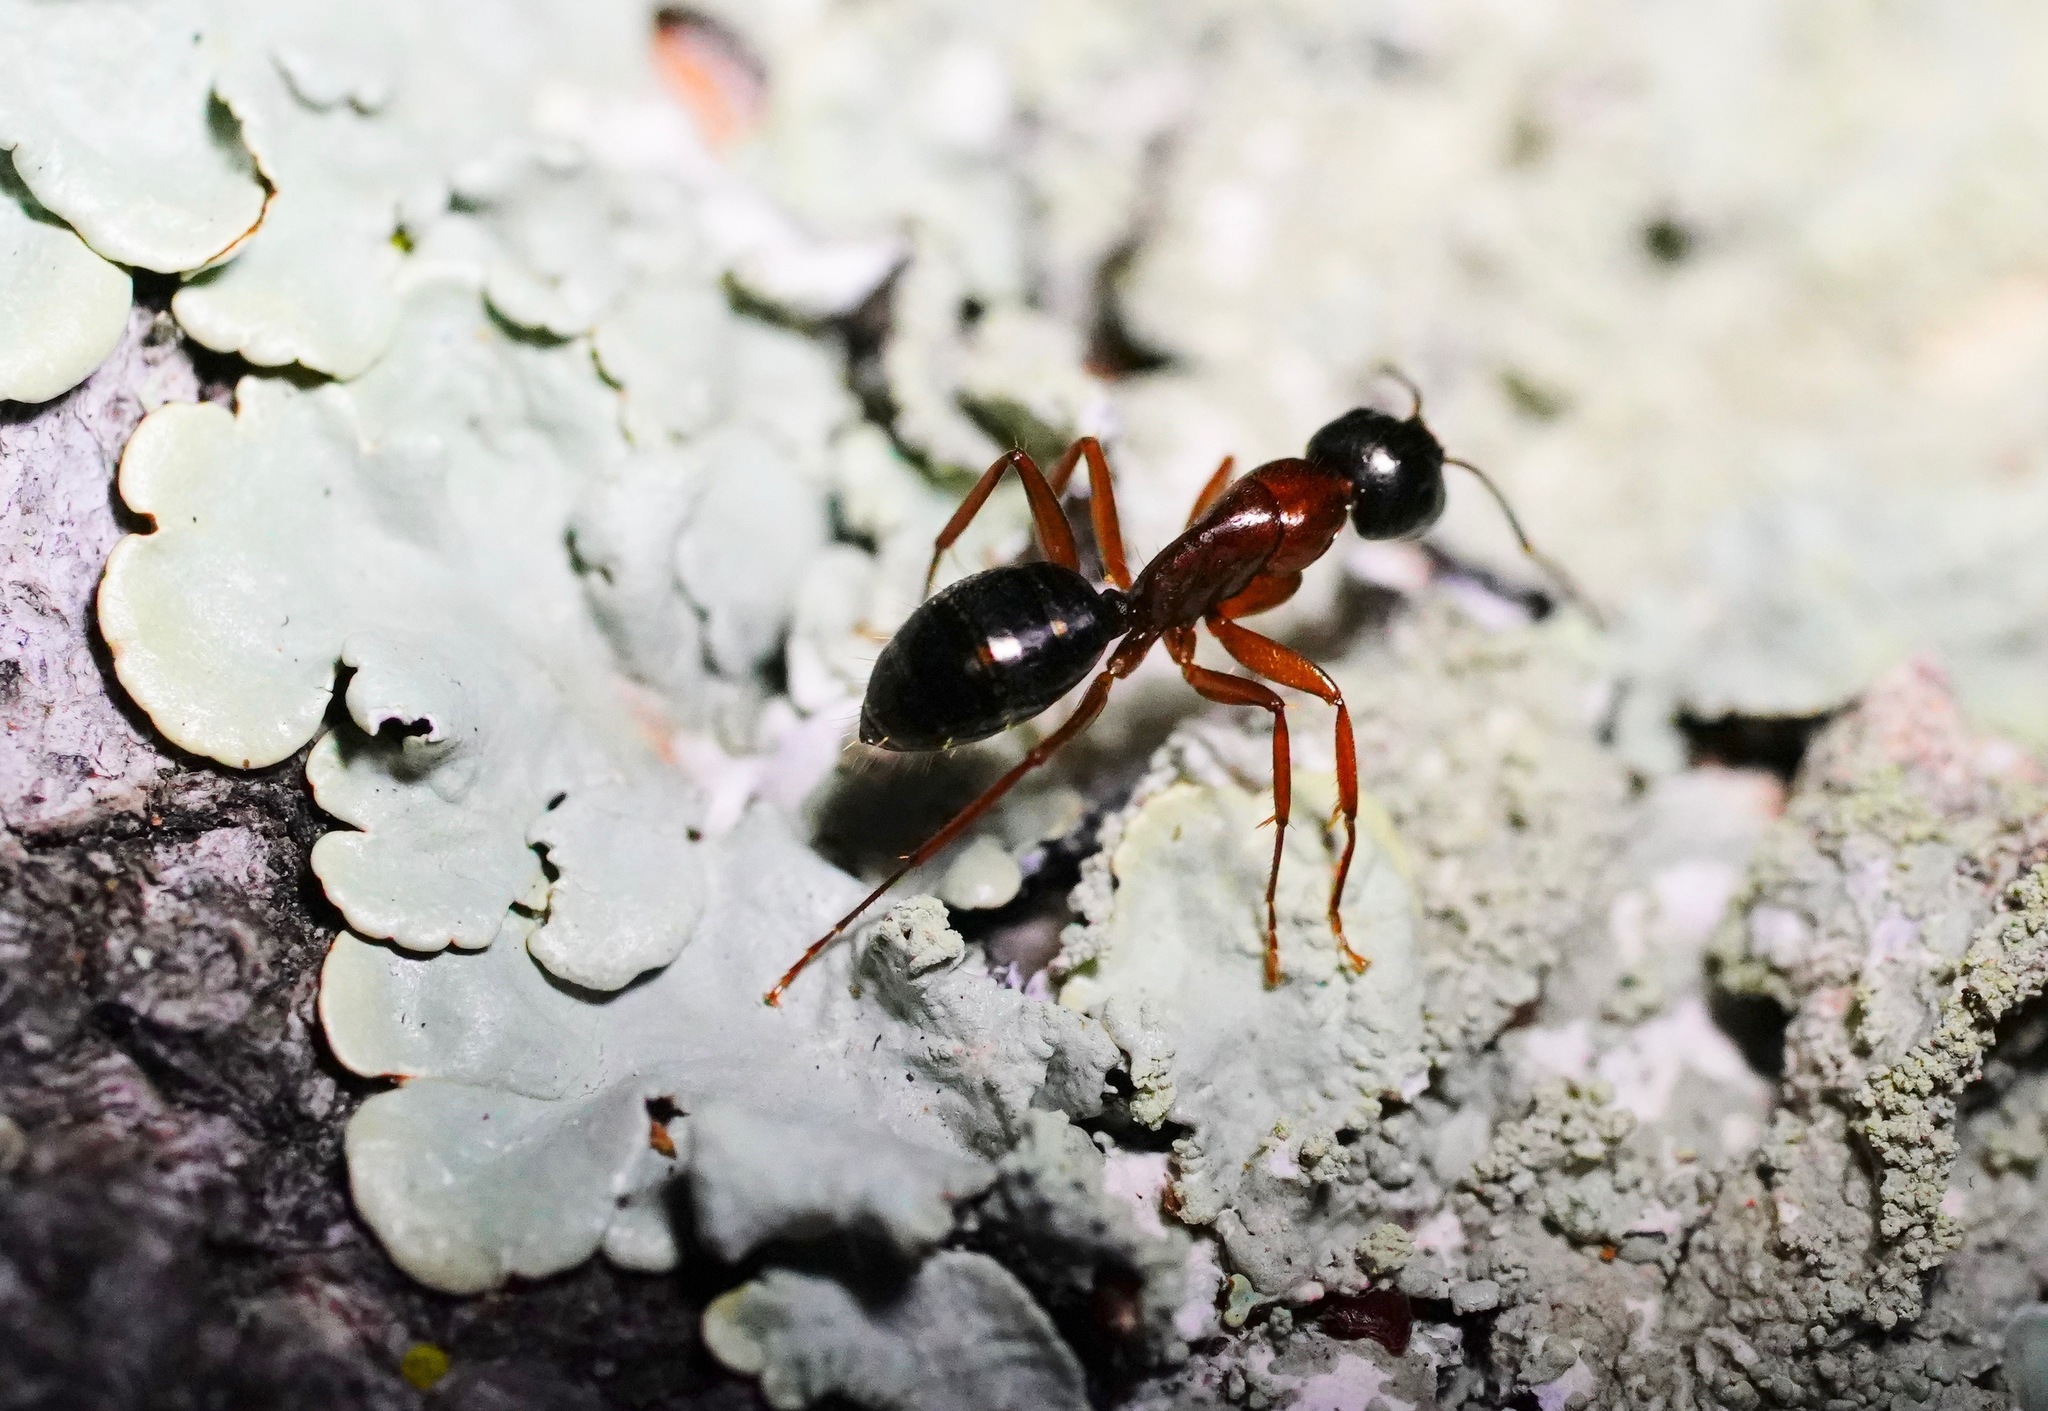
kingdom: Animalia
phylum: Arthropoda
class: Insecta
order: Hymenoptera
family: Formicidae
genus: Camponotus
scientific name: Camponotus vicinus
